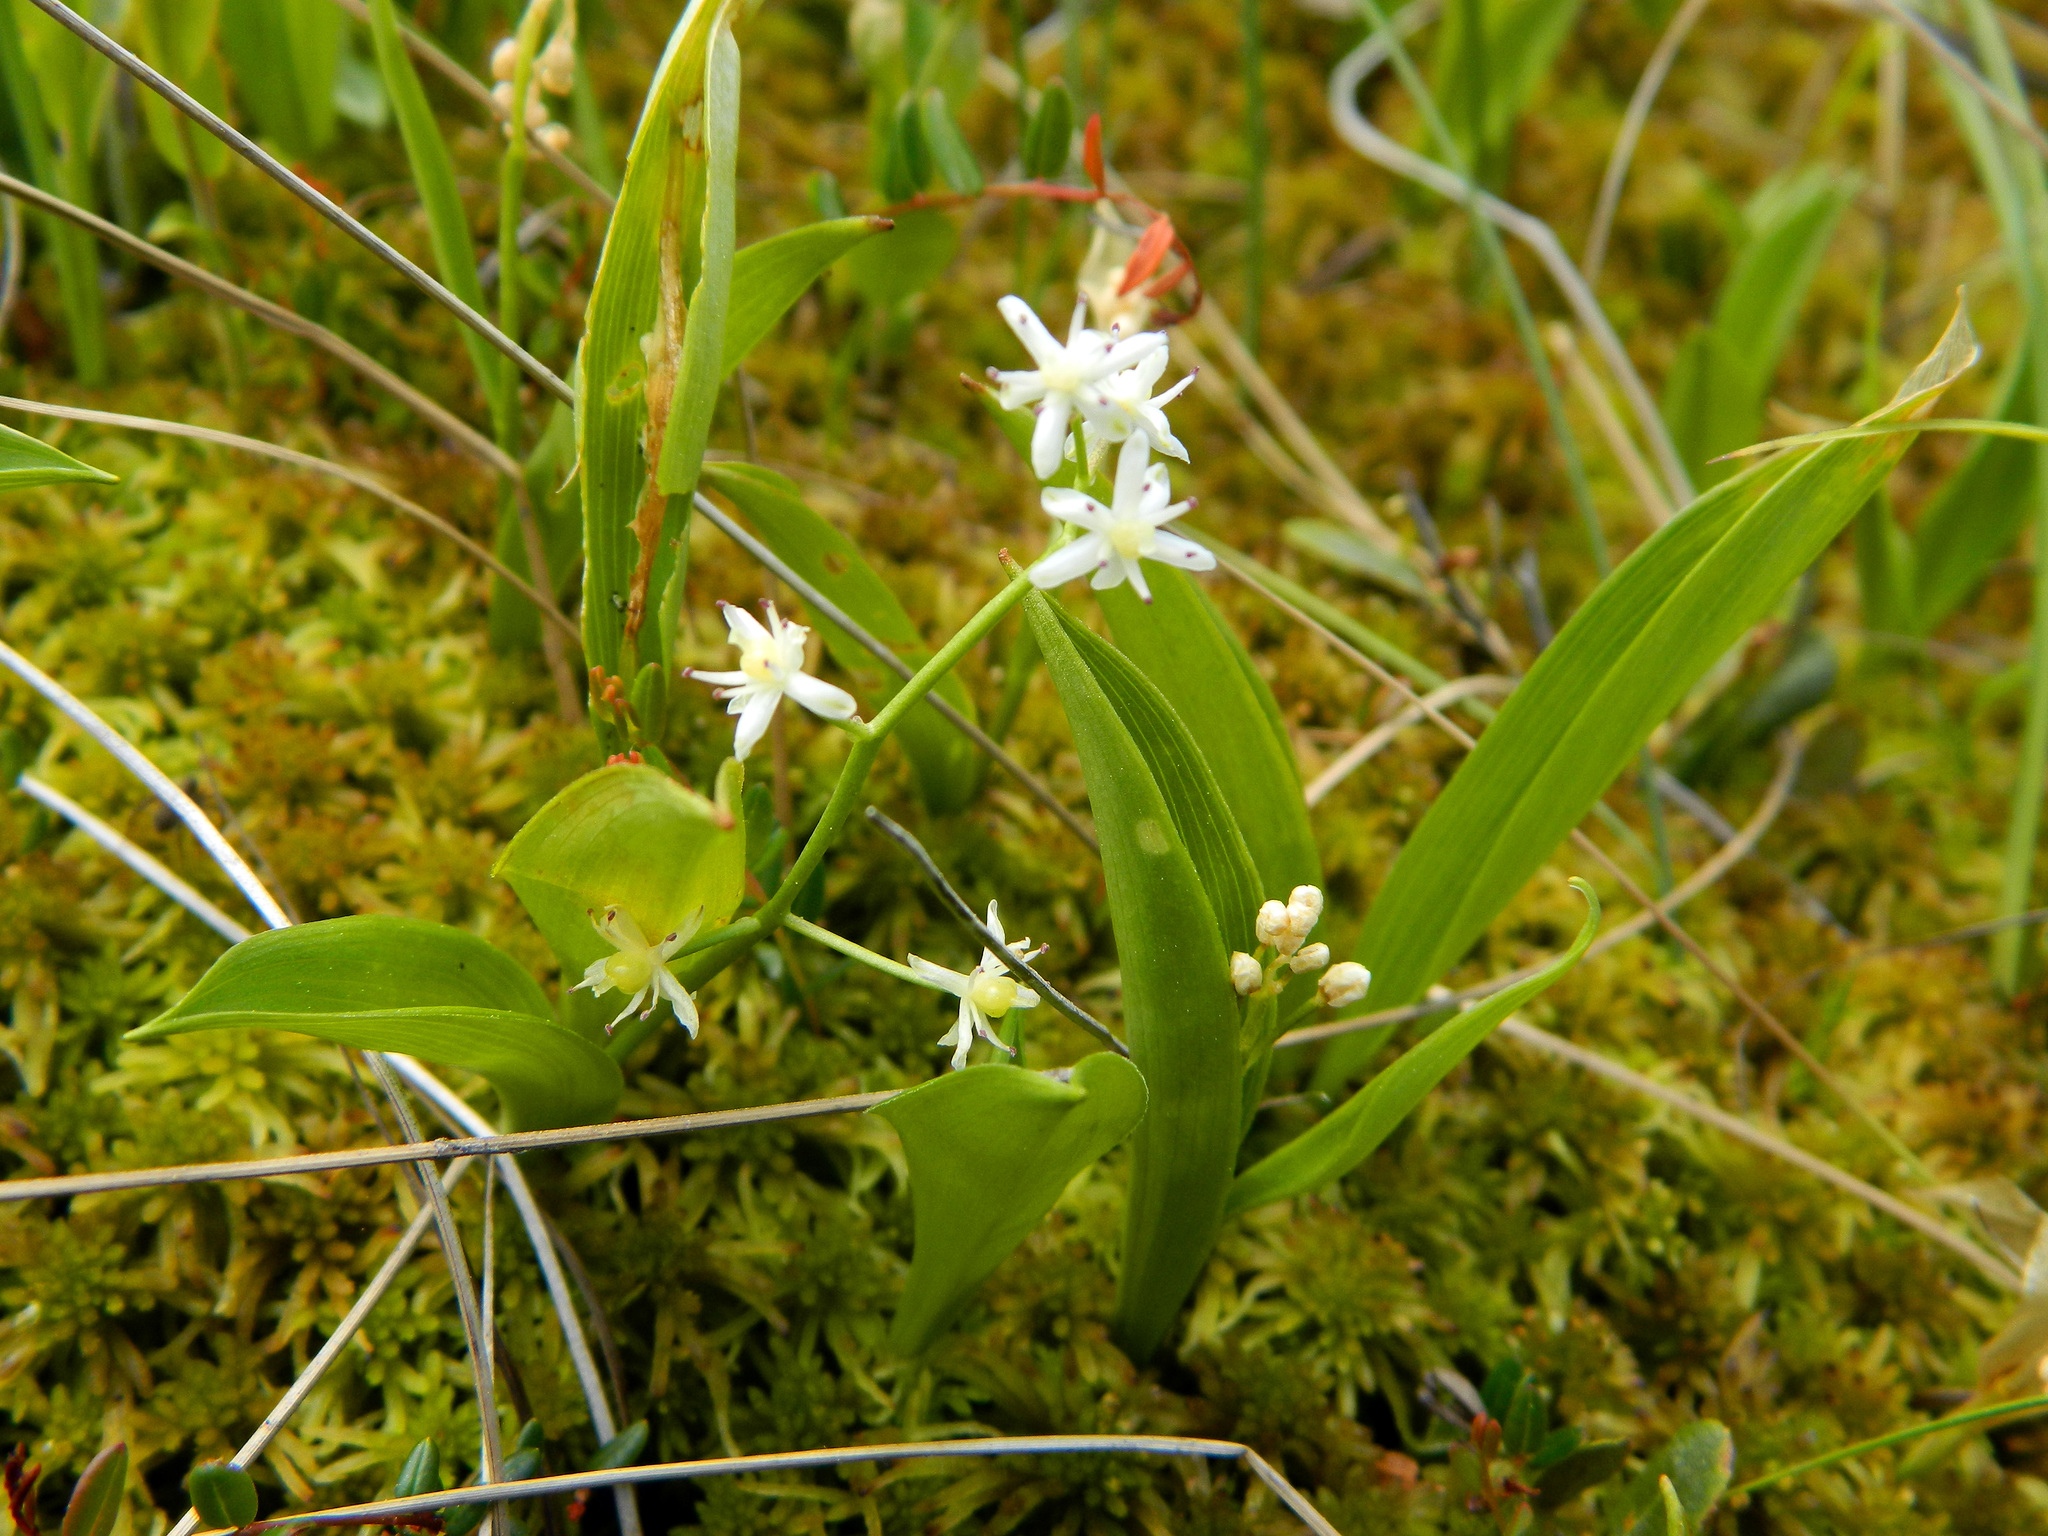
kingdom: Plantae
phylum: Tracheophyta
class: Liliopsida
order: Asparagales
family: Asparagaceae
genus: Maianthemum
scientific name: Maianthemum trifolium
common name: Swamp false solomon's seal
